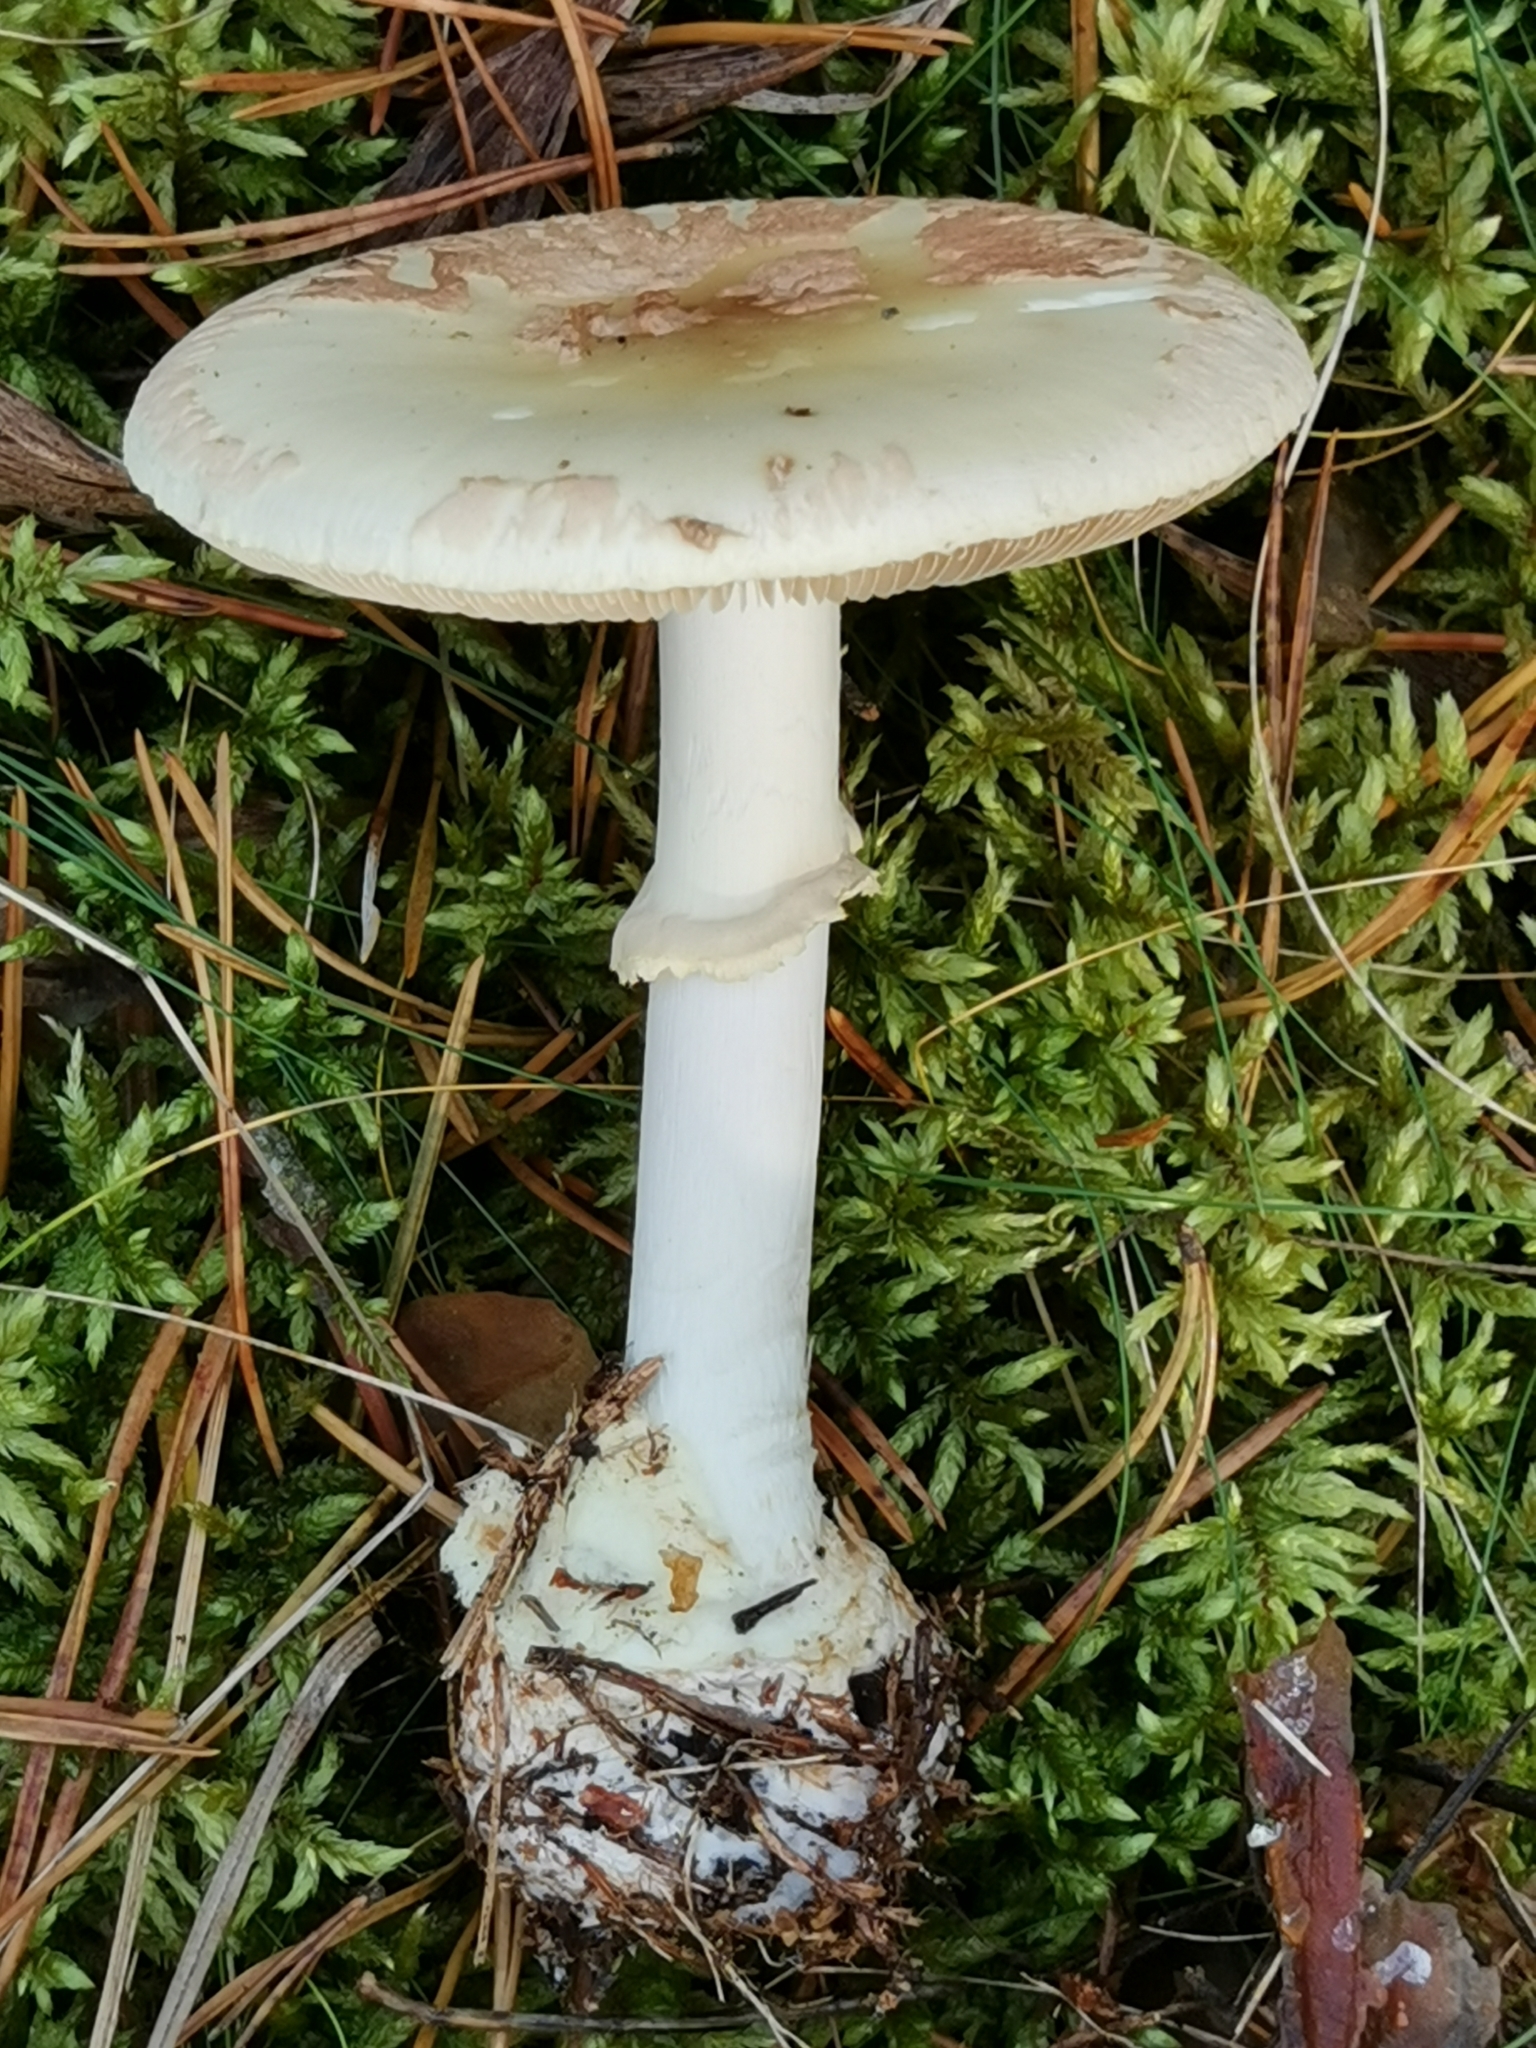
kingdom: Fungi
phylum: Basidiomycota
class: Agaricomycetes
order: Agaricales
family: Amanitaceae
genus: Amanita
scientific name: Amanita citrina
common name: False death-cap
